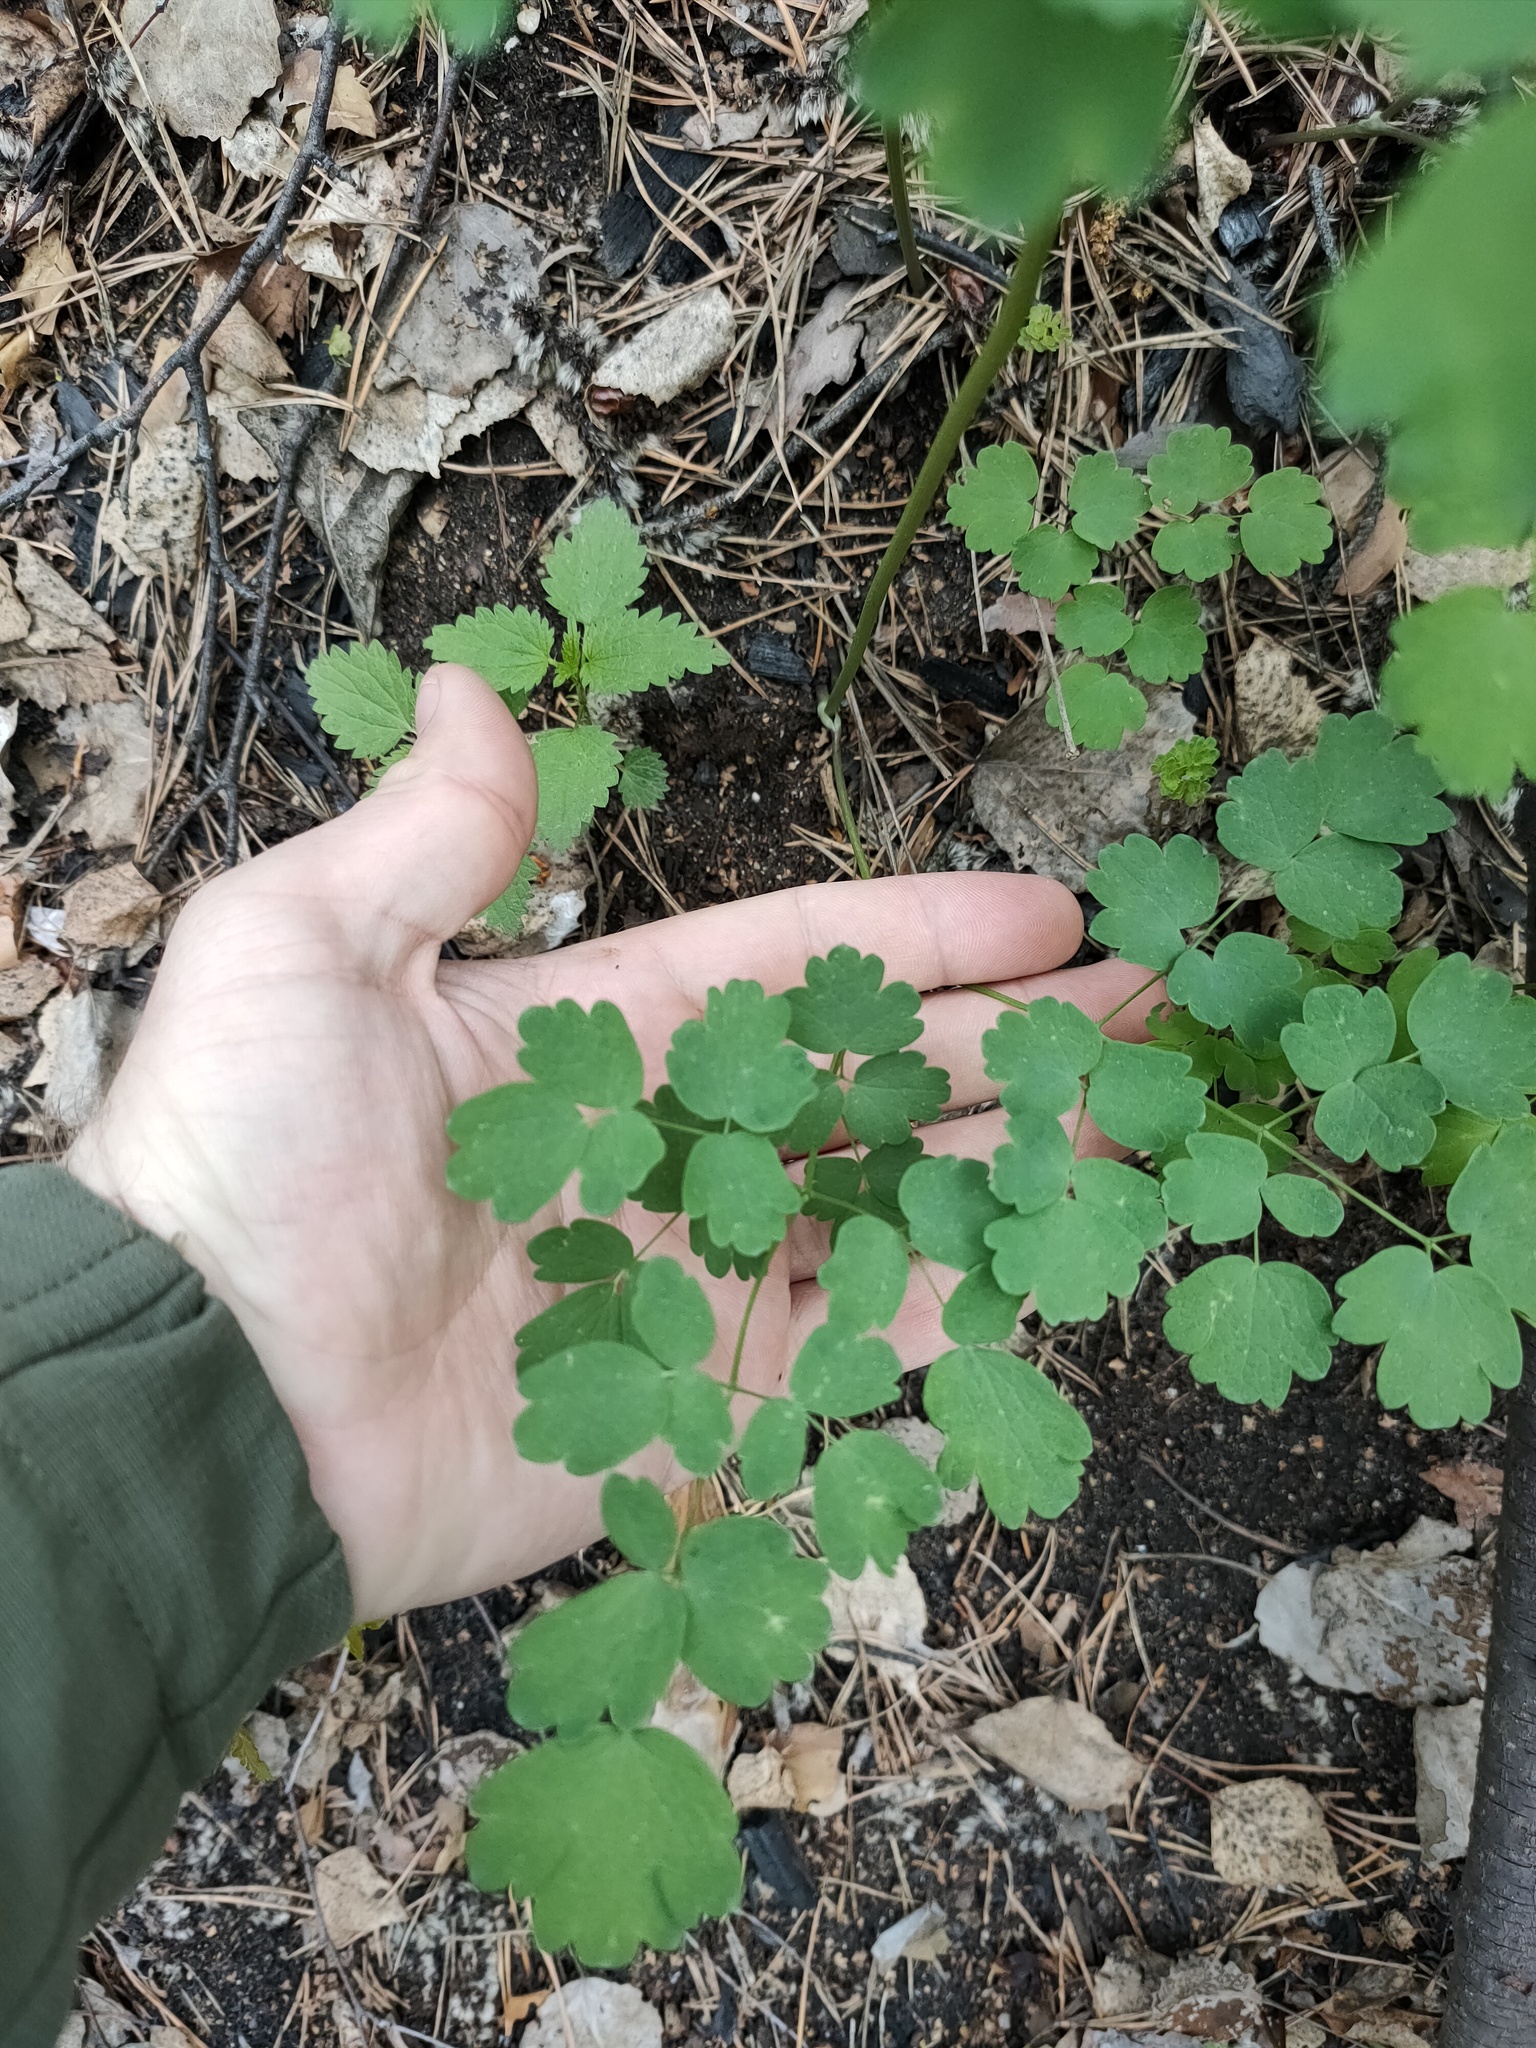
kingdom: Plantae
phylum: Tracheophyta
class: Magnoliopsida
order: Ranunculales
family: Ranunculaceae
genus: Thalictrum
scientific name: Thalictrum minus
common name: Lesser meadow-rue
